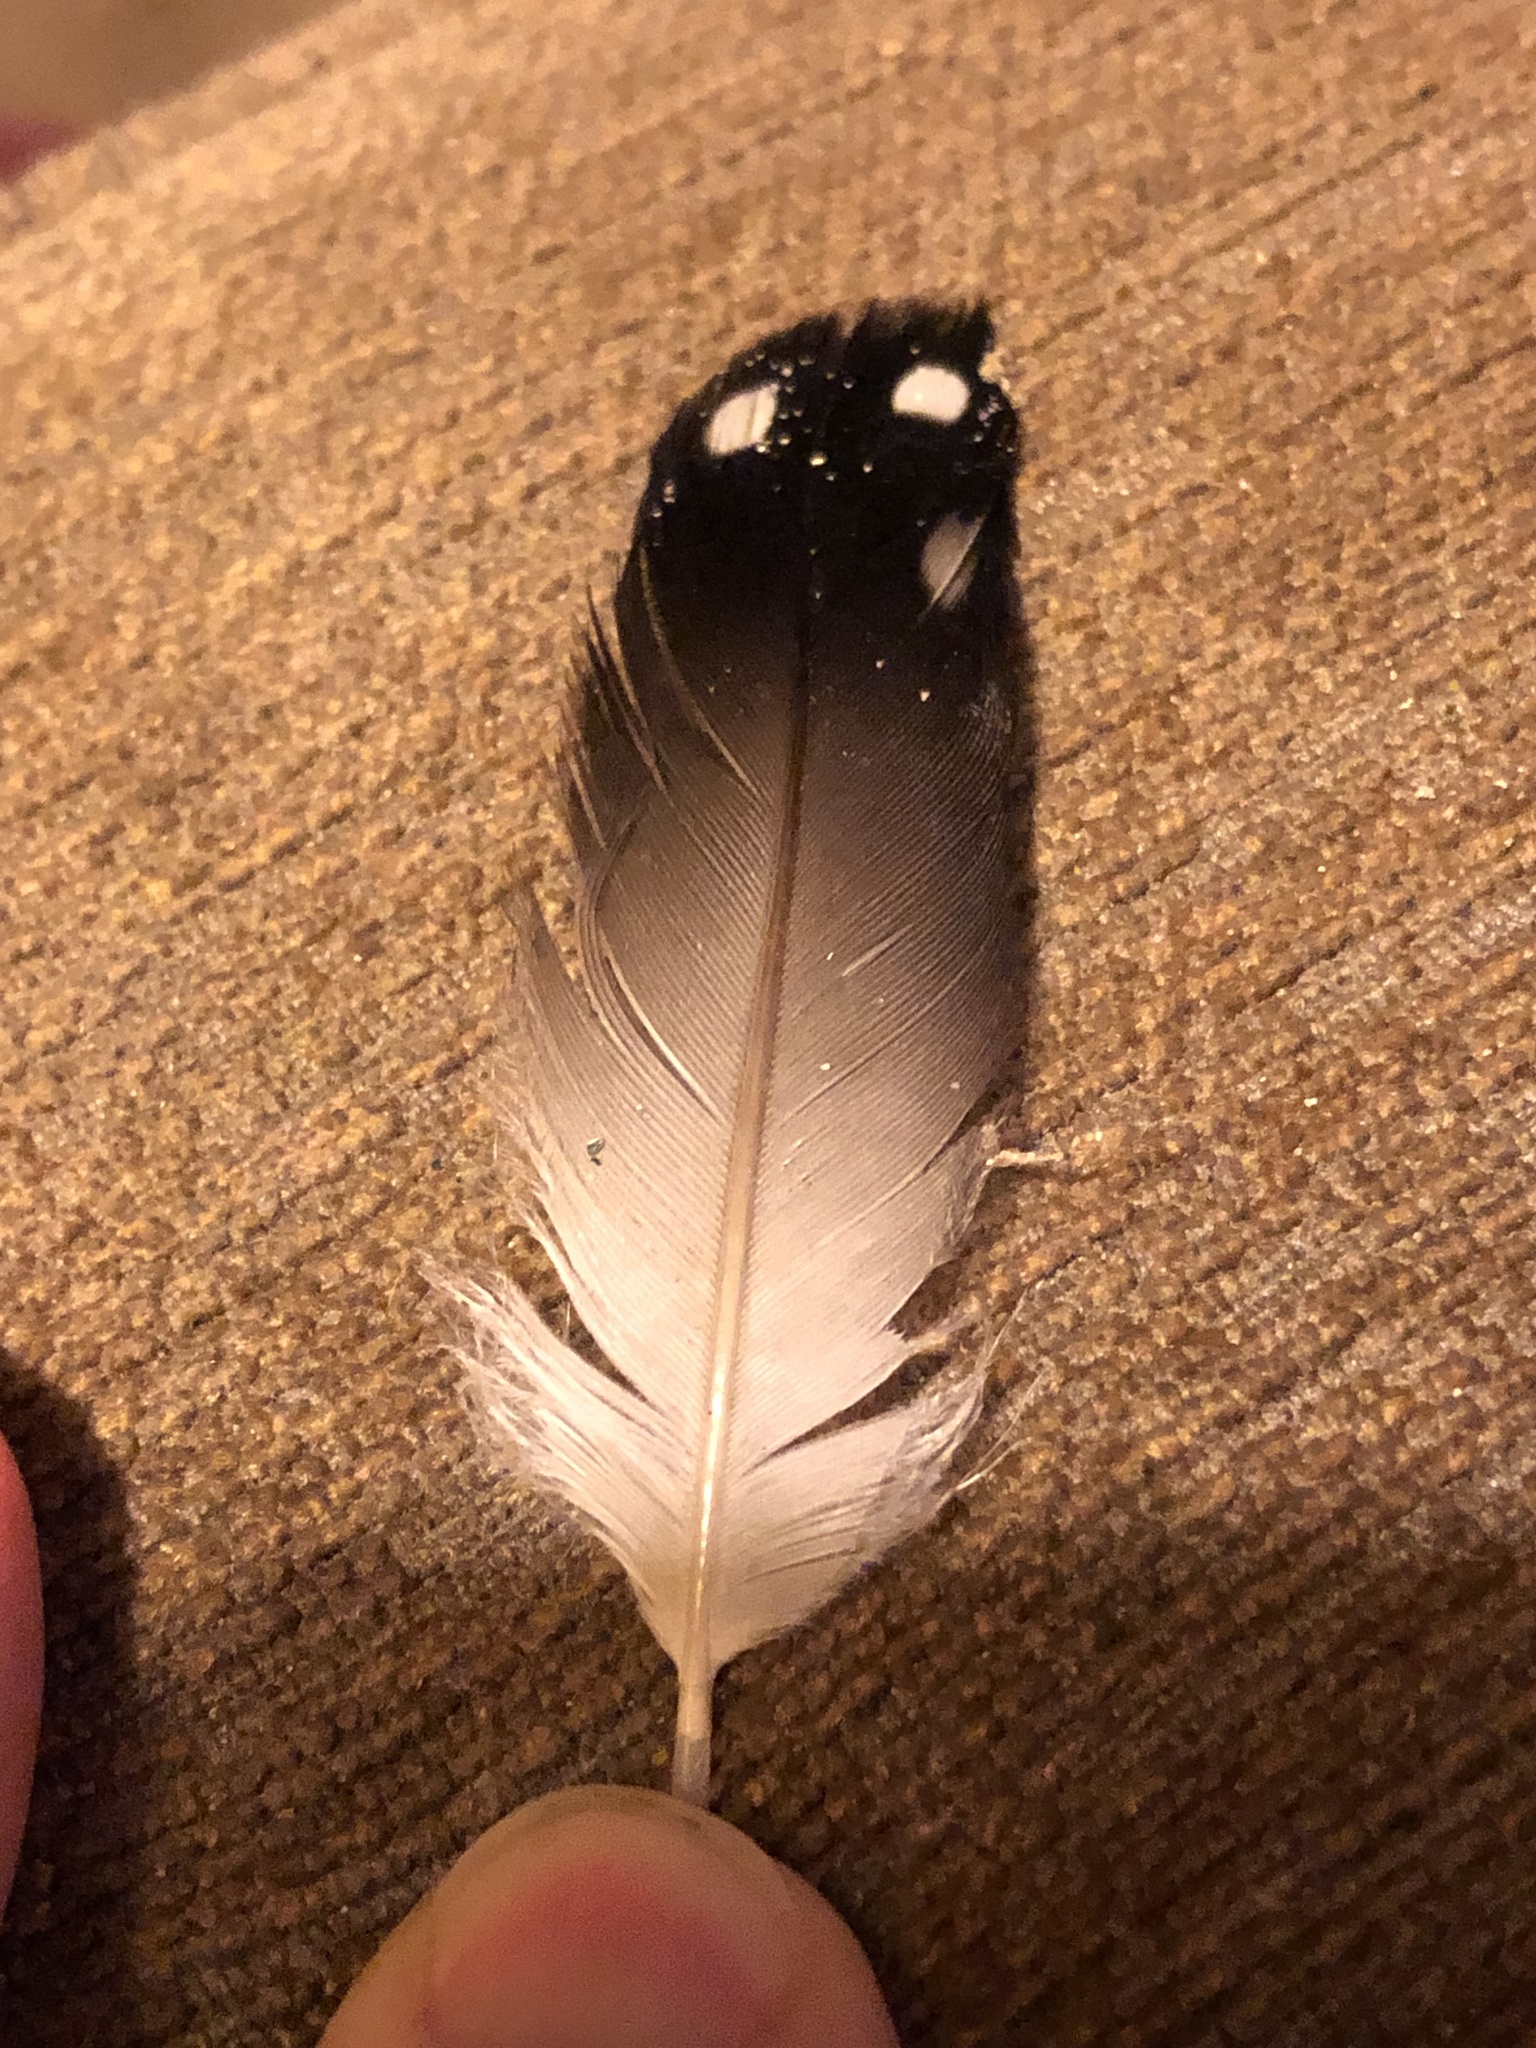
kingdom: Animalia
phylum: Chordata
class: Aves
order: Gaviiformes
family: Gaviidae
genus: Gavia
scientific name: Gavia immer
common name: Common loon
